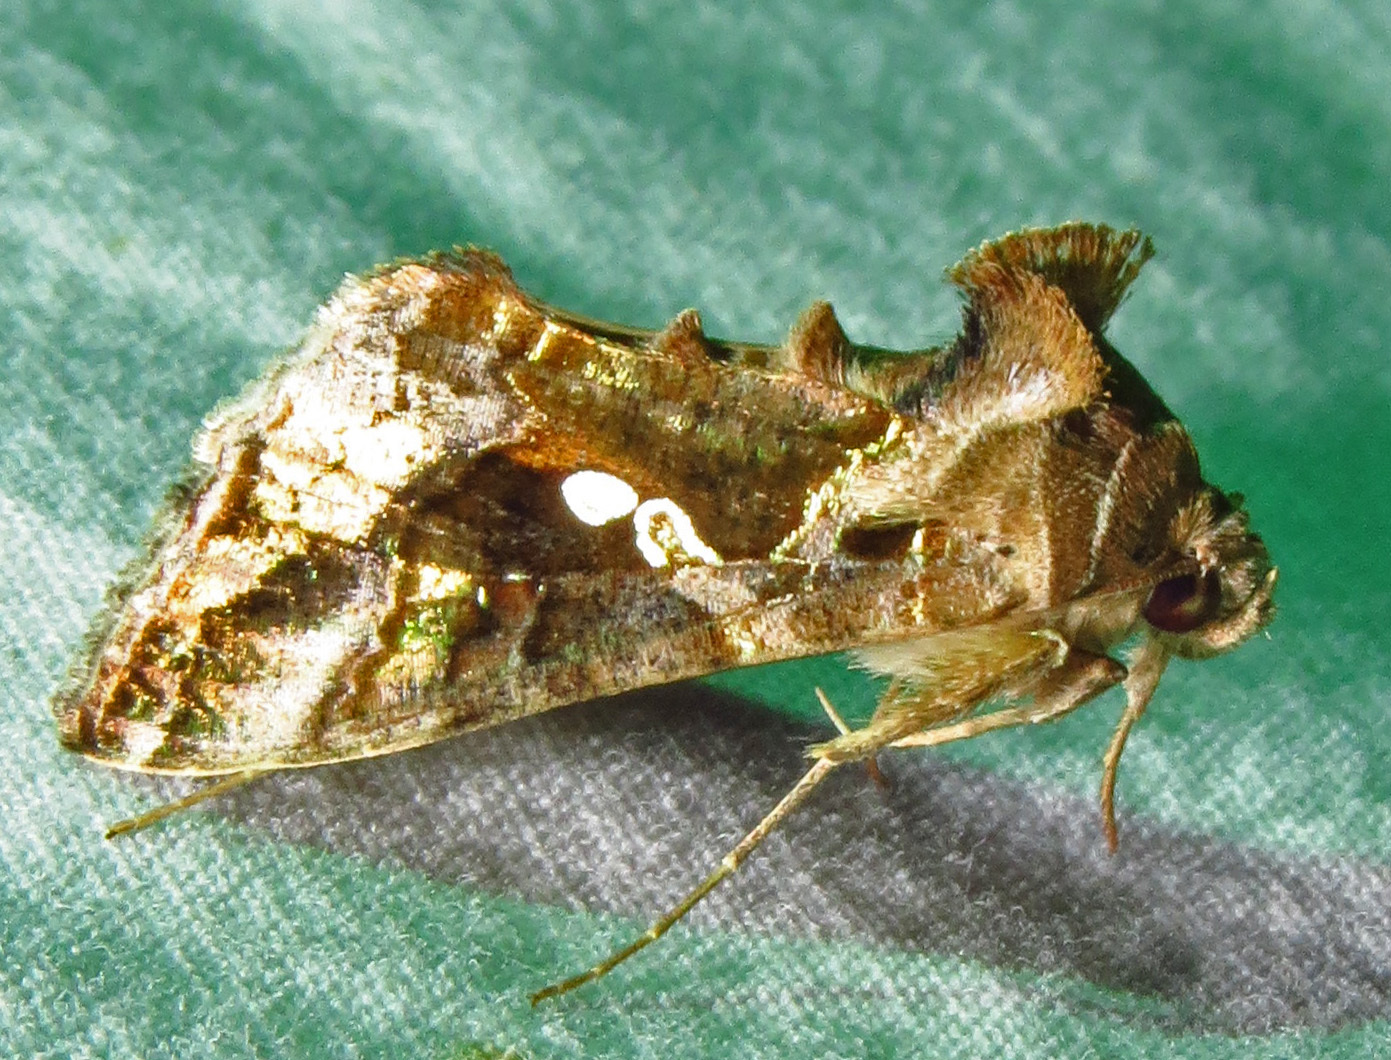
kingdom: Animalia
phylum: Arthropoda
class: Insecta
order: Lepidoptera
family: Noctuidae
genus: Chrysodeixis
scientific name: Chrysodeixis includens
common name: Cutworm moth
